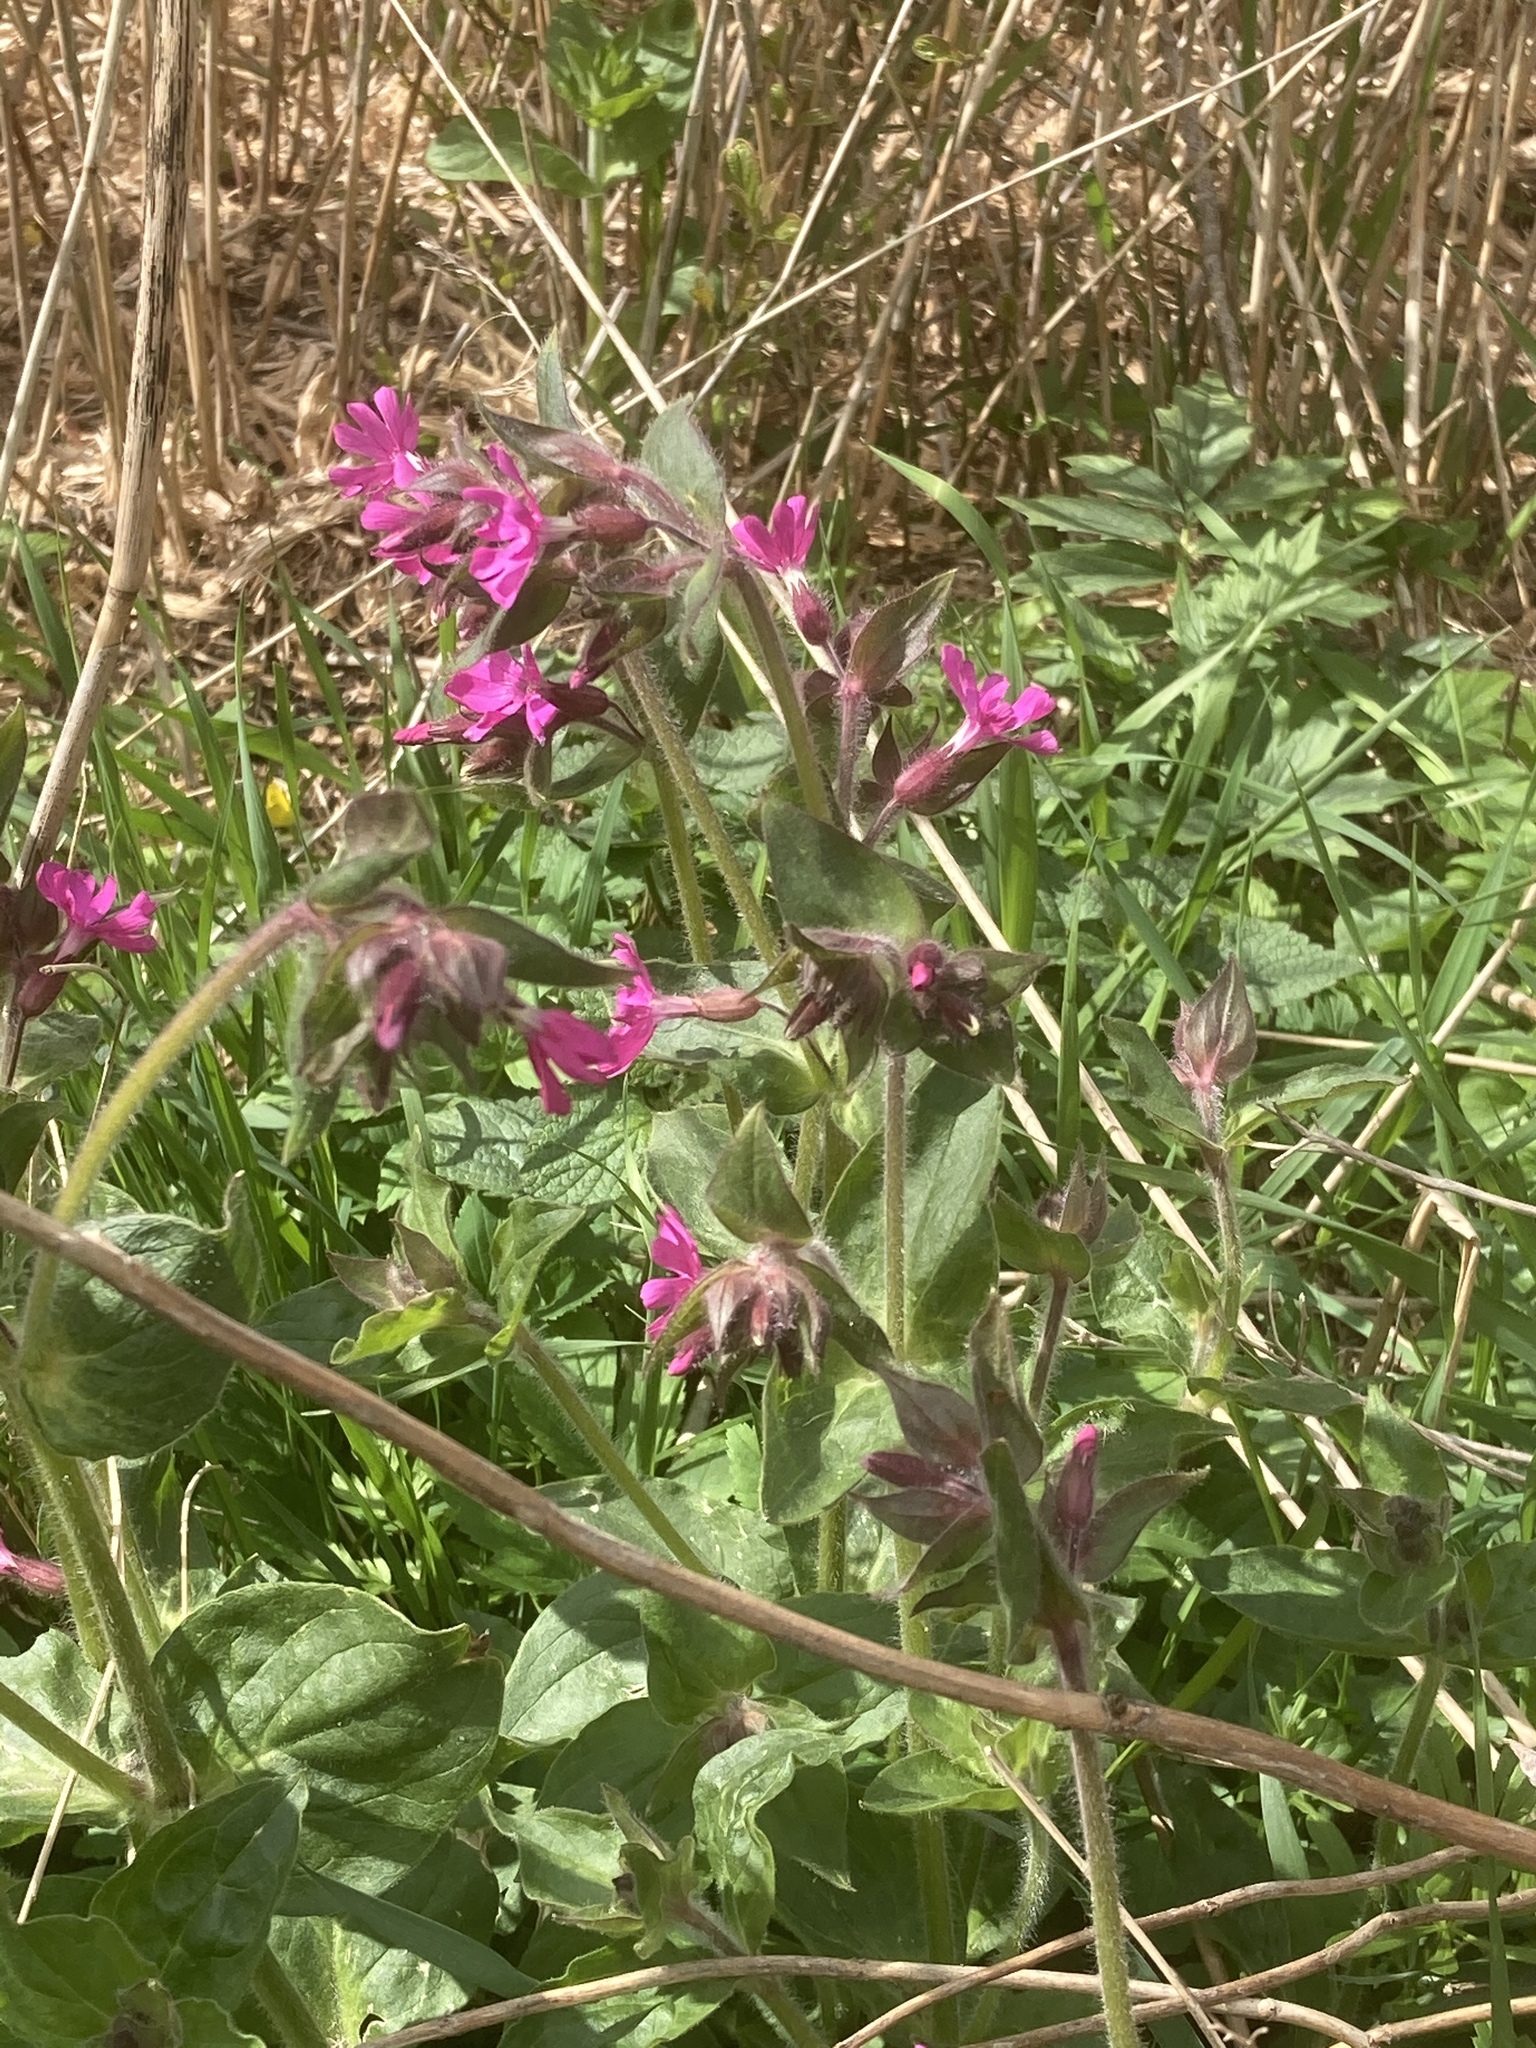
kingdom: Plantae
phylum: Tracheophyta
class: Magnoliopsida
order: Caryophyllales
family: Caryophyllaceae
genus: Silene
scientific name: Silene dioica
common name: Red campion
